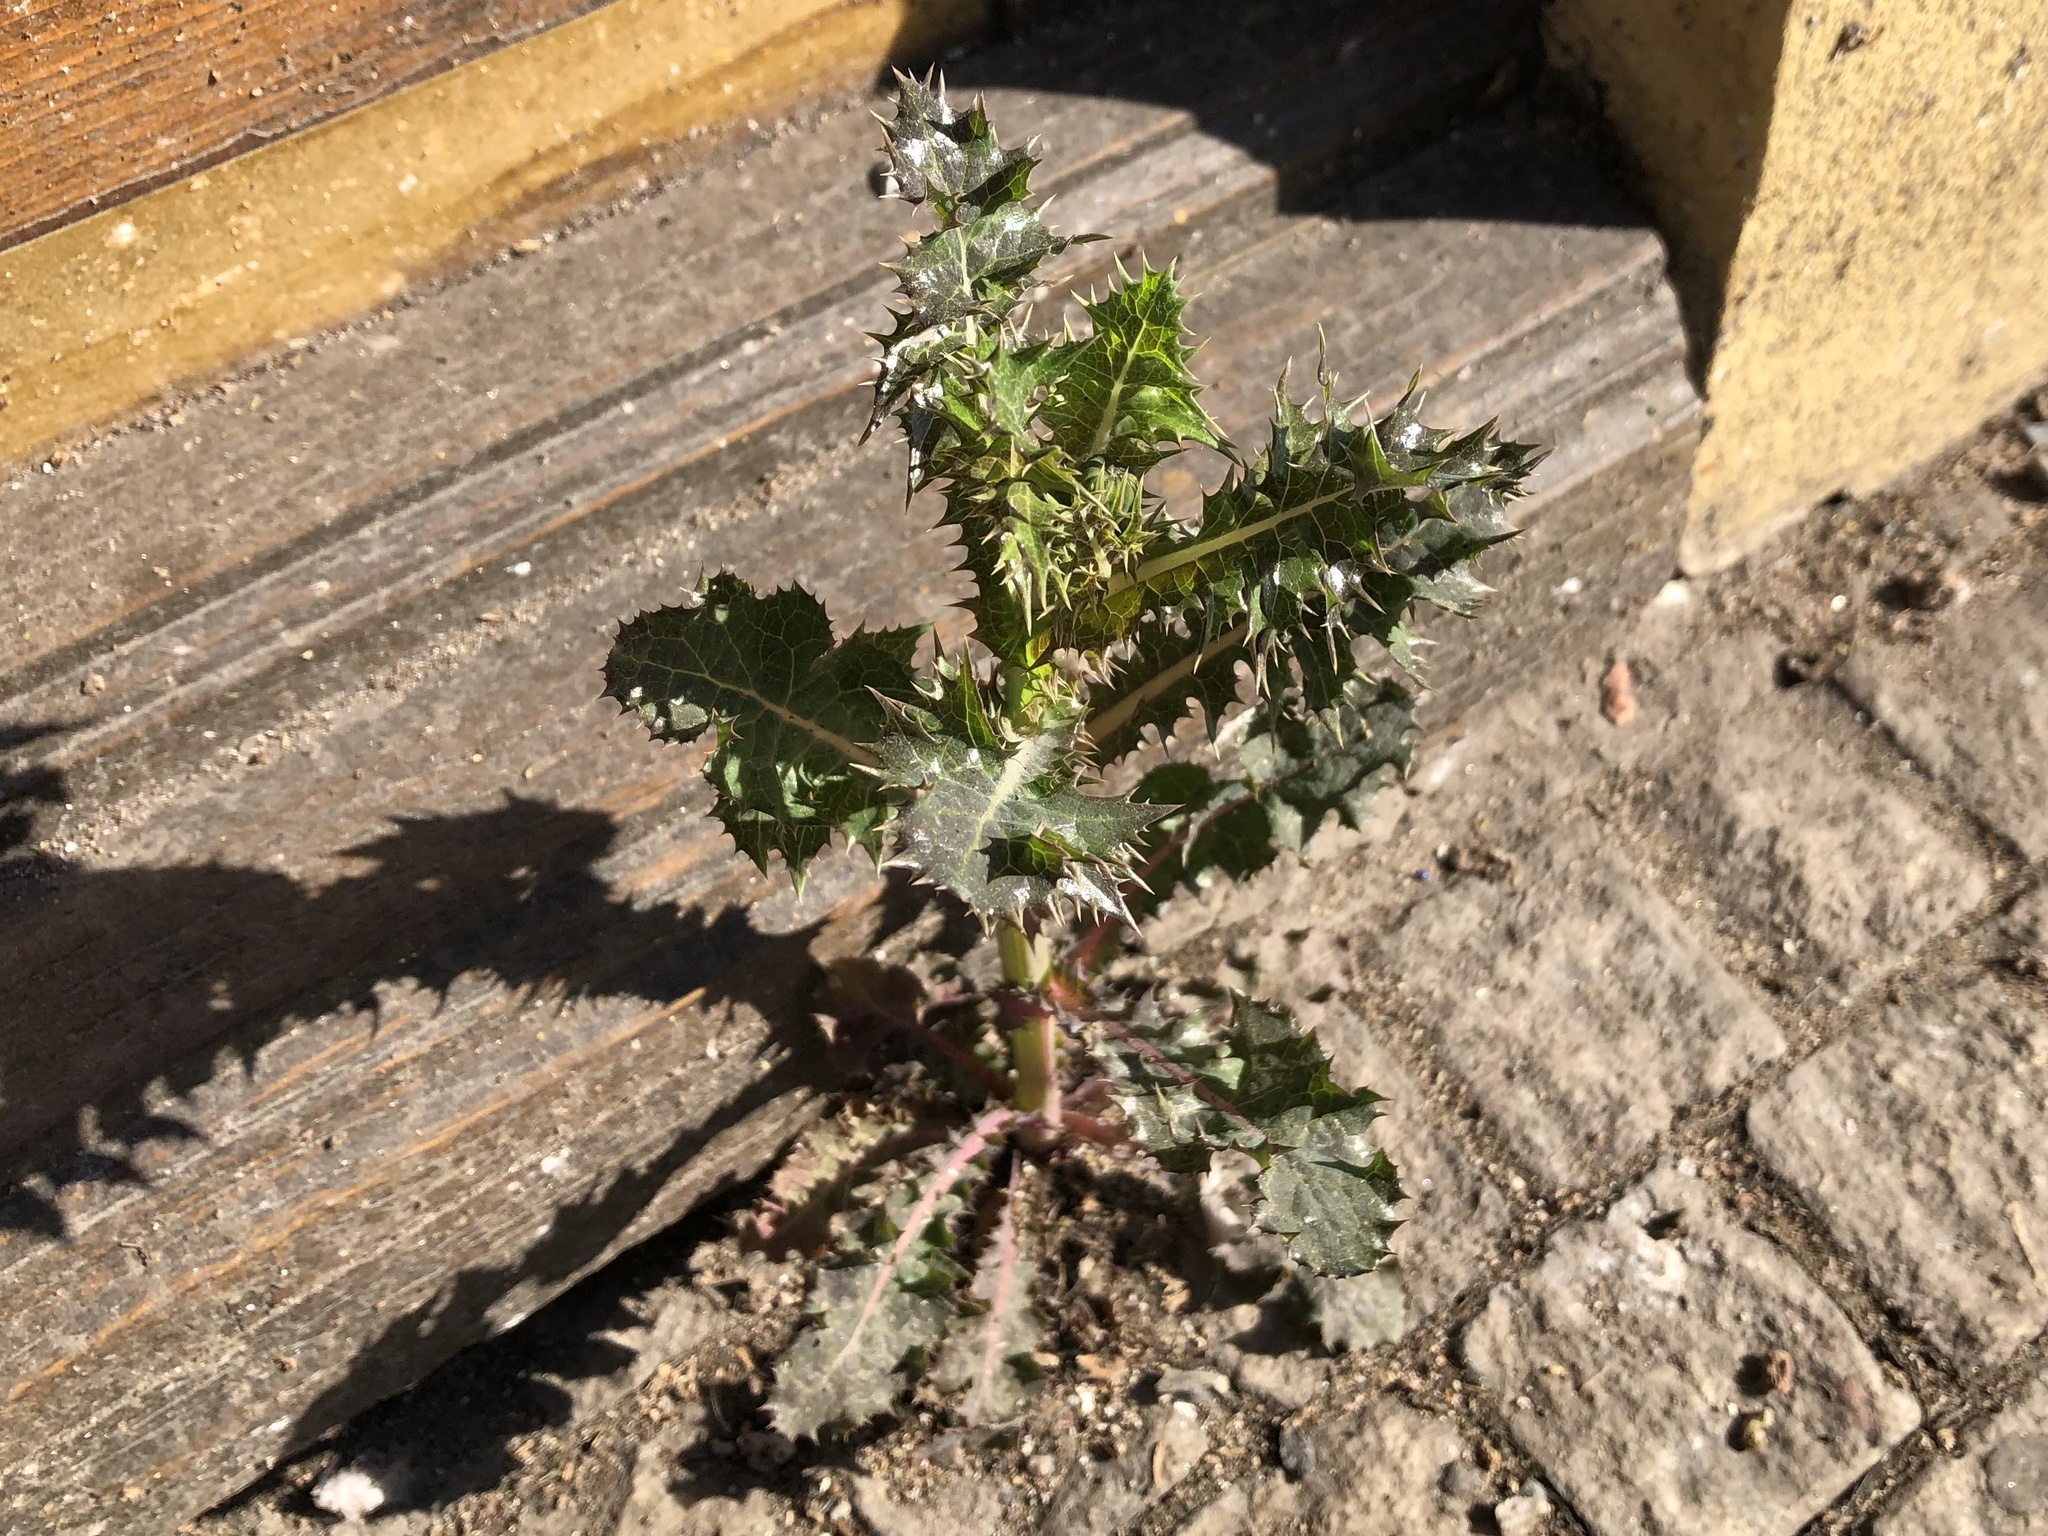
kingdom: Plantae
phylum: Tracheophyta
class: Magnoliopsida
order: Asterales
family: Asteraceae
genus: Sonchus
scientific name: Sonchus asper
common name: Prickly sow-thistle
